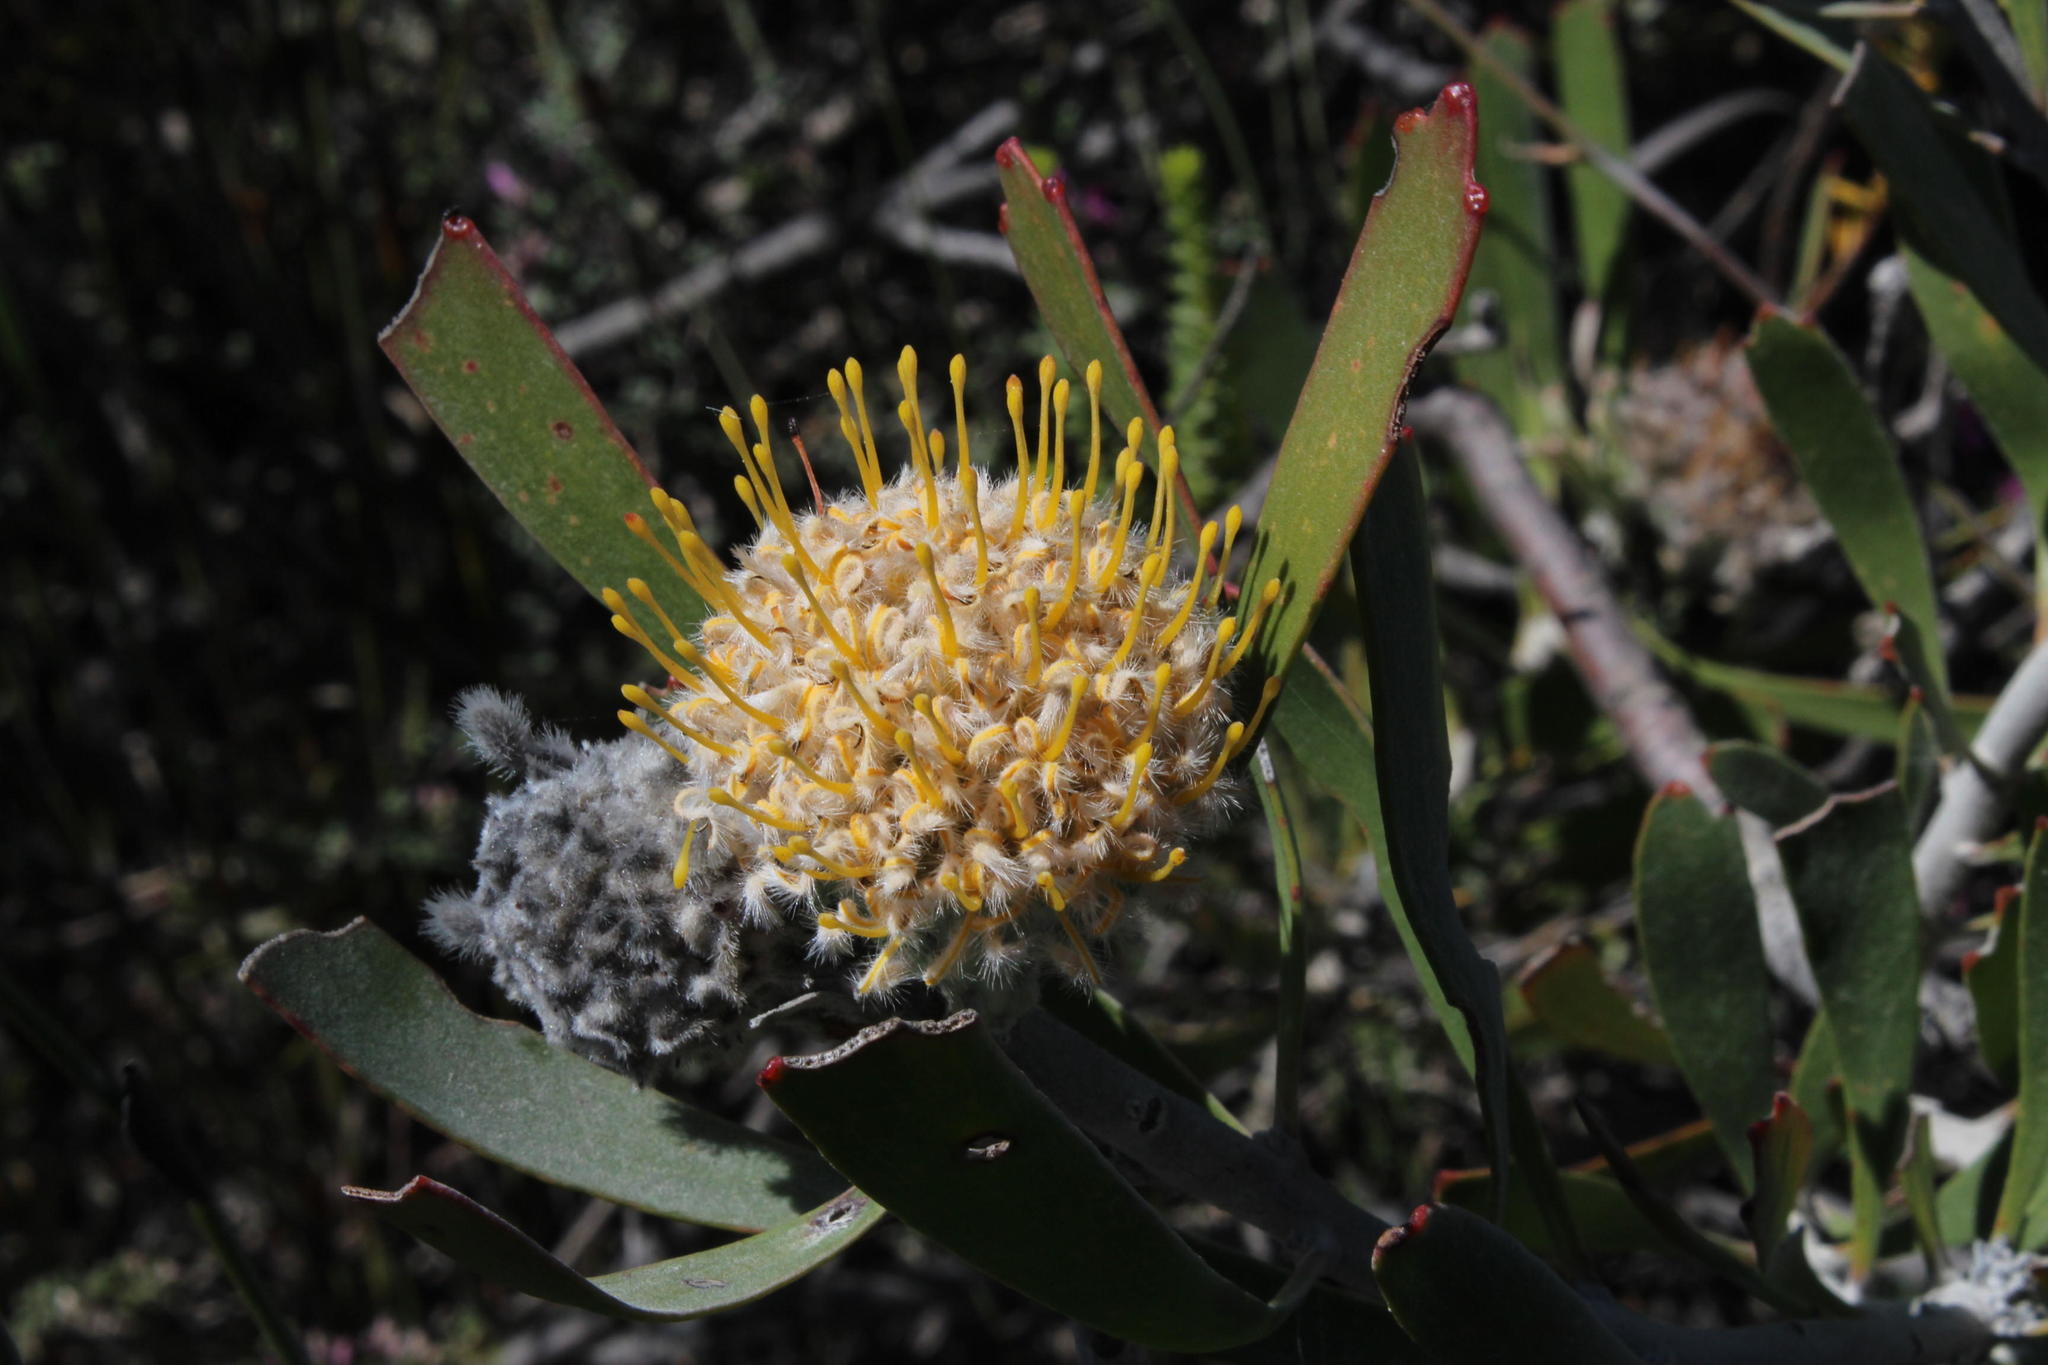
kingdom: Plantae
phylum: Tracheophyta
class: Magnoliopsida
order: Proteales
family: Proteaceae
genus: Leucospermum
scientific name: Leucospermum truncatum
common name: Limestone pincushion
